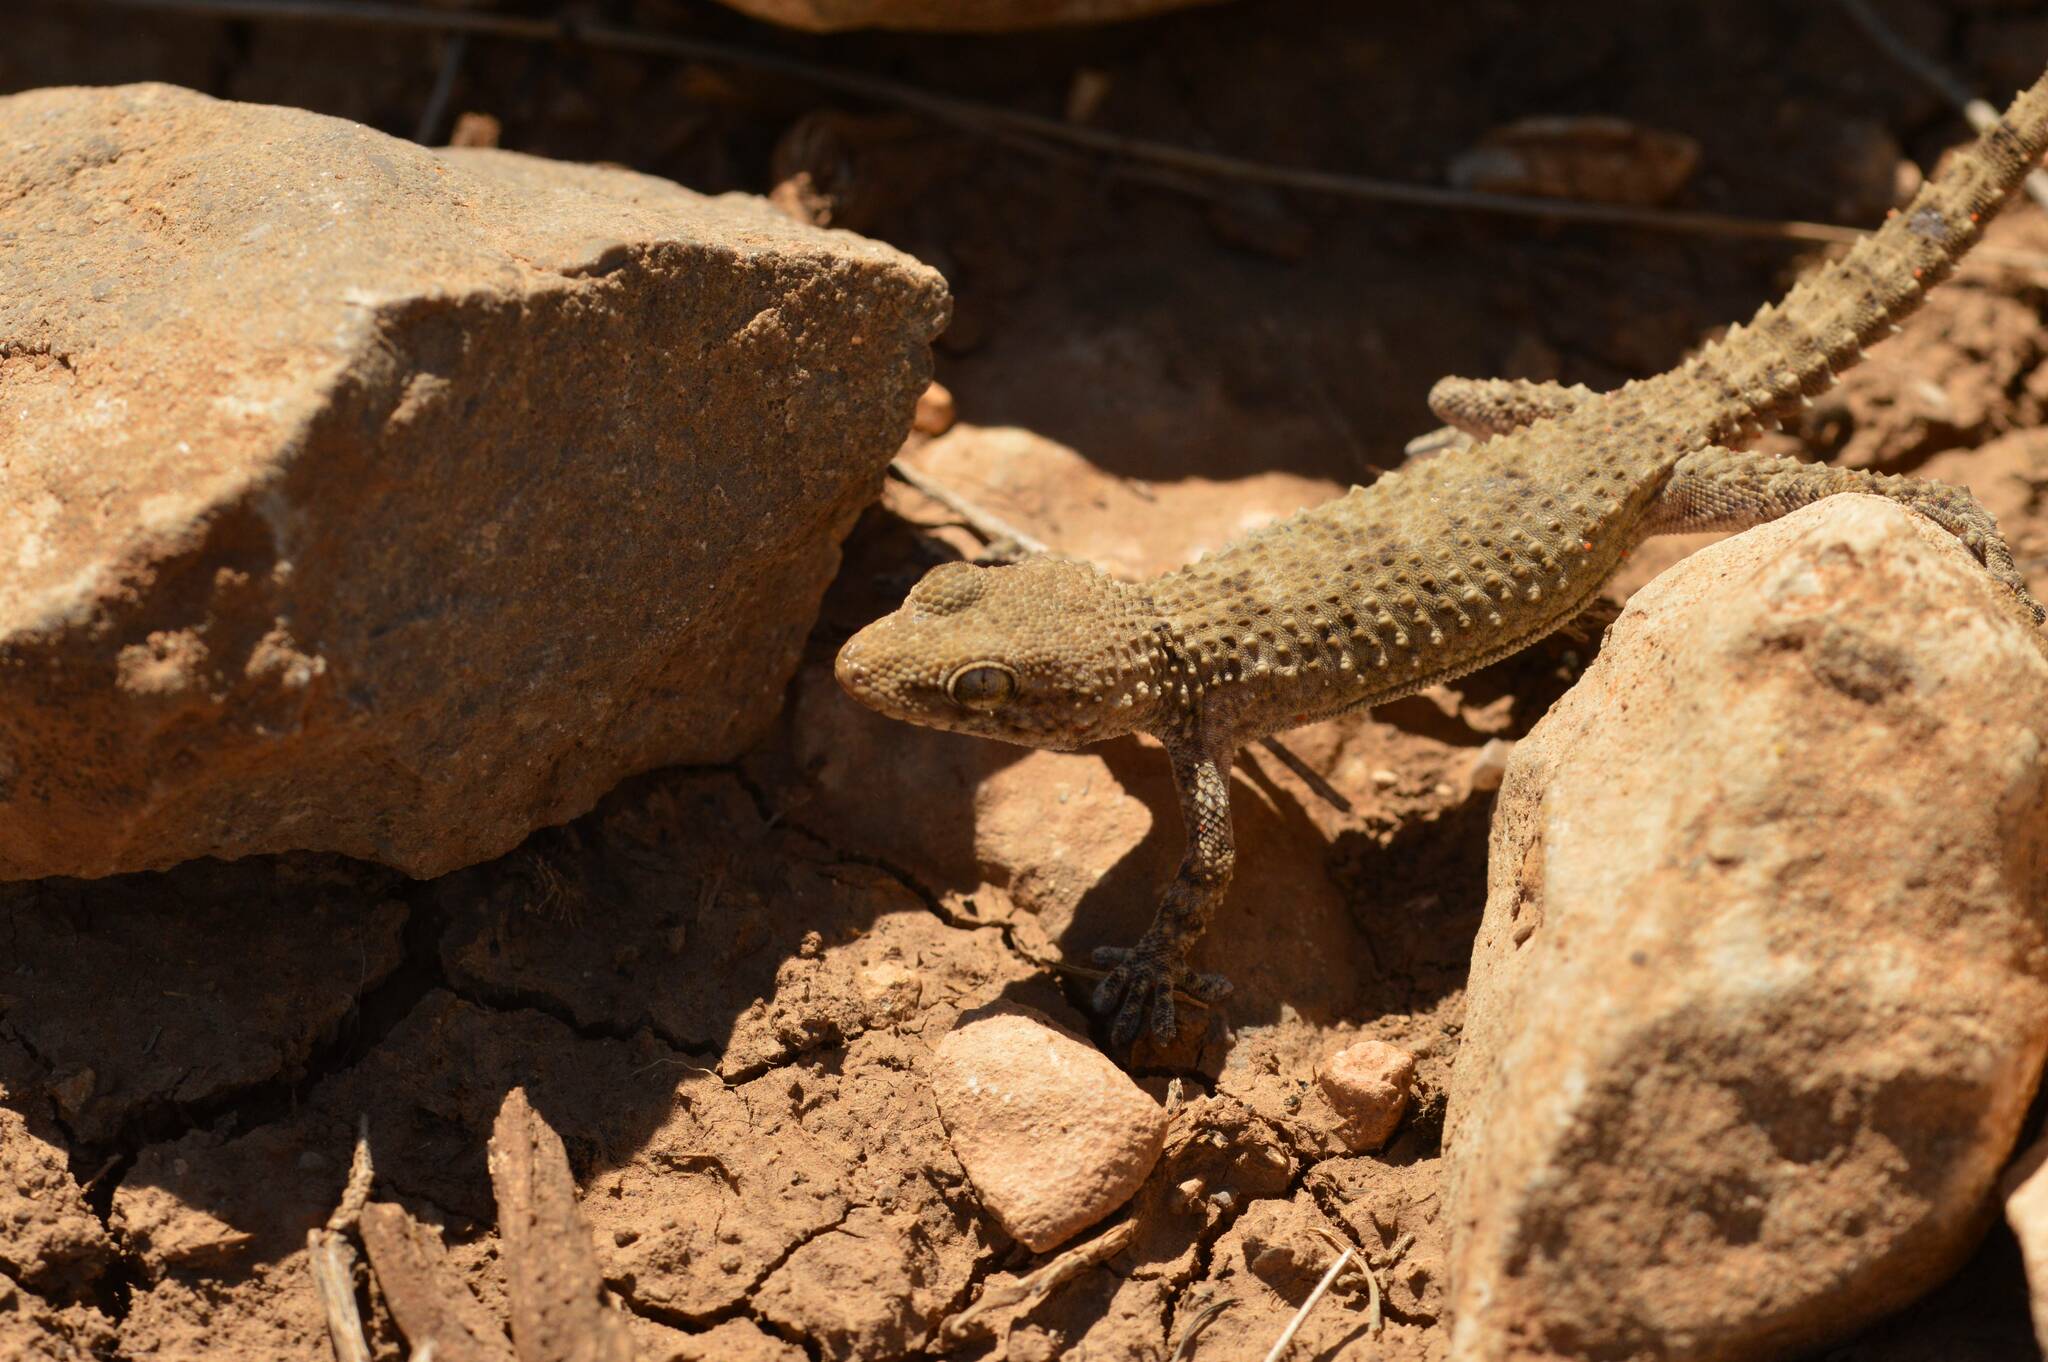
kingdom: Animalia
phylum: Chordata
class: Squamata
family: Phyllodactylidae
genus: Tarentola
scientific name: Tarentola mauritanica
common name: Moorish gecko
